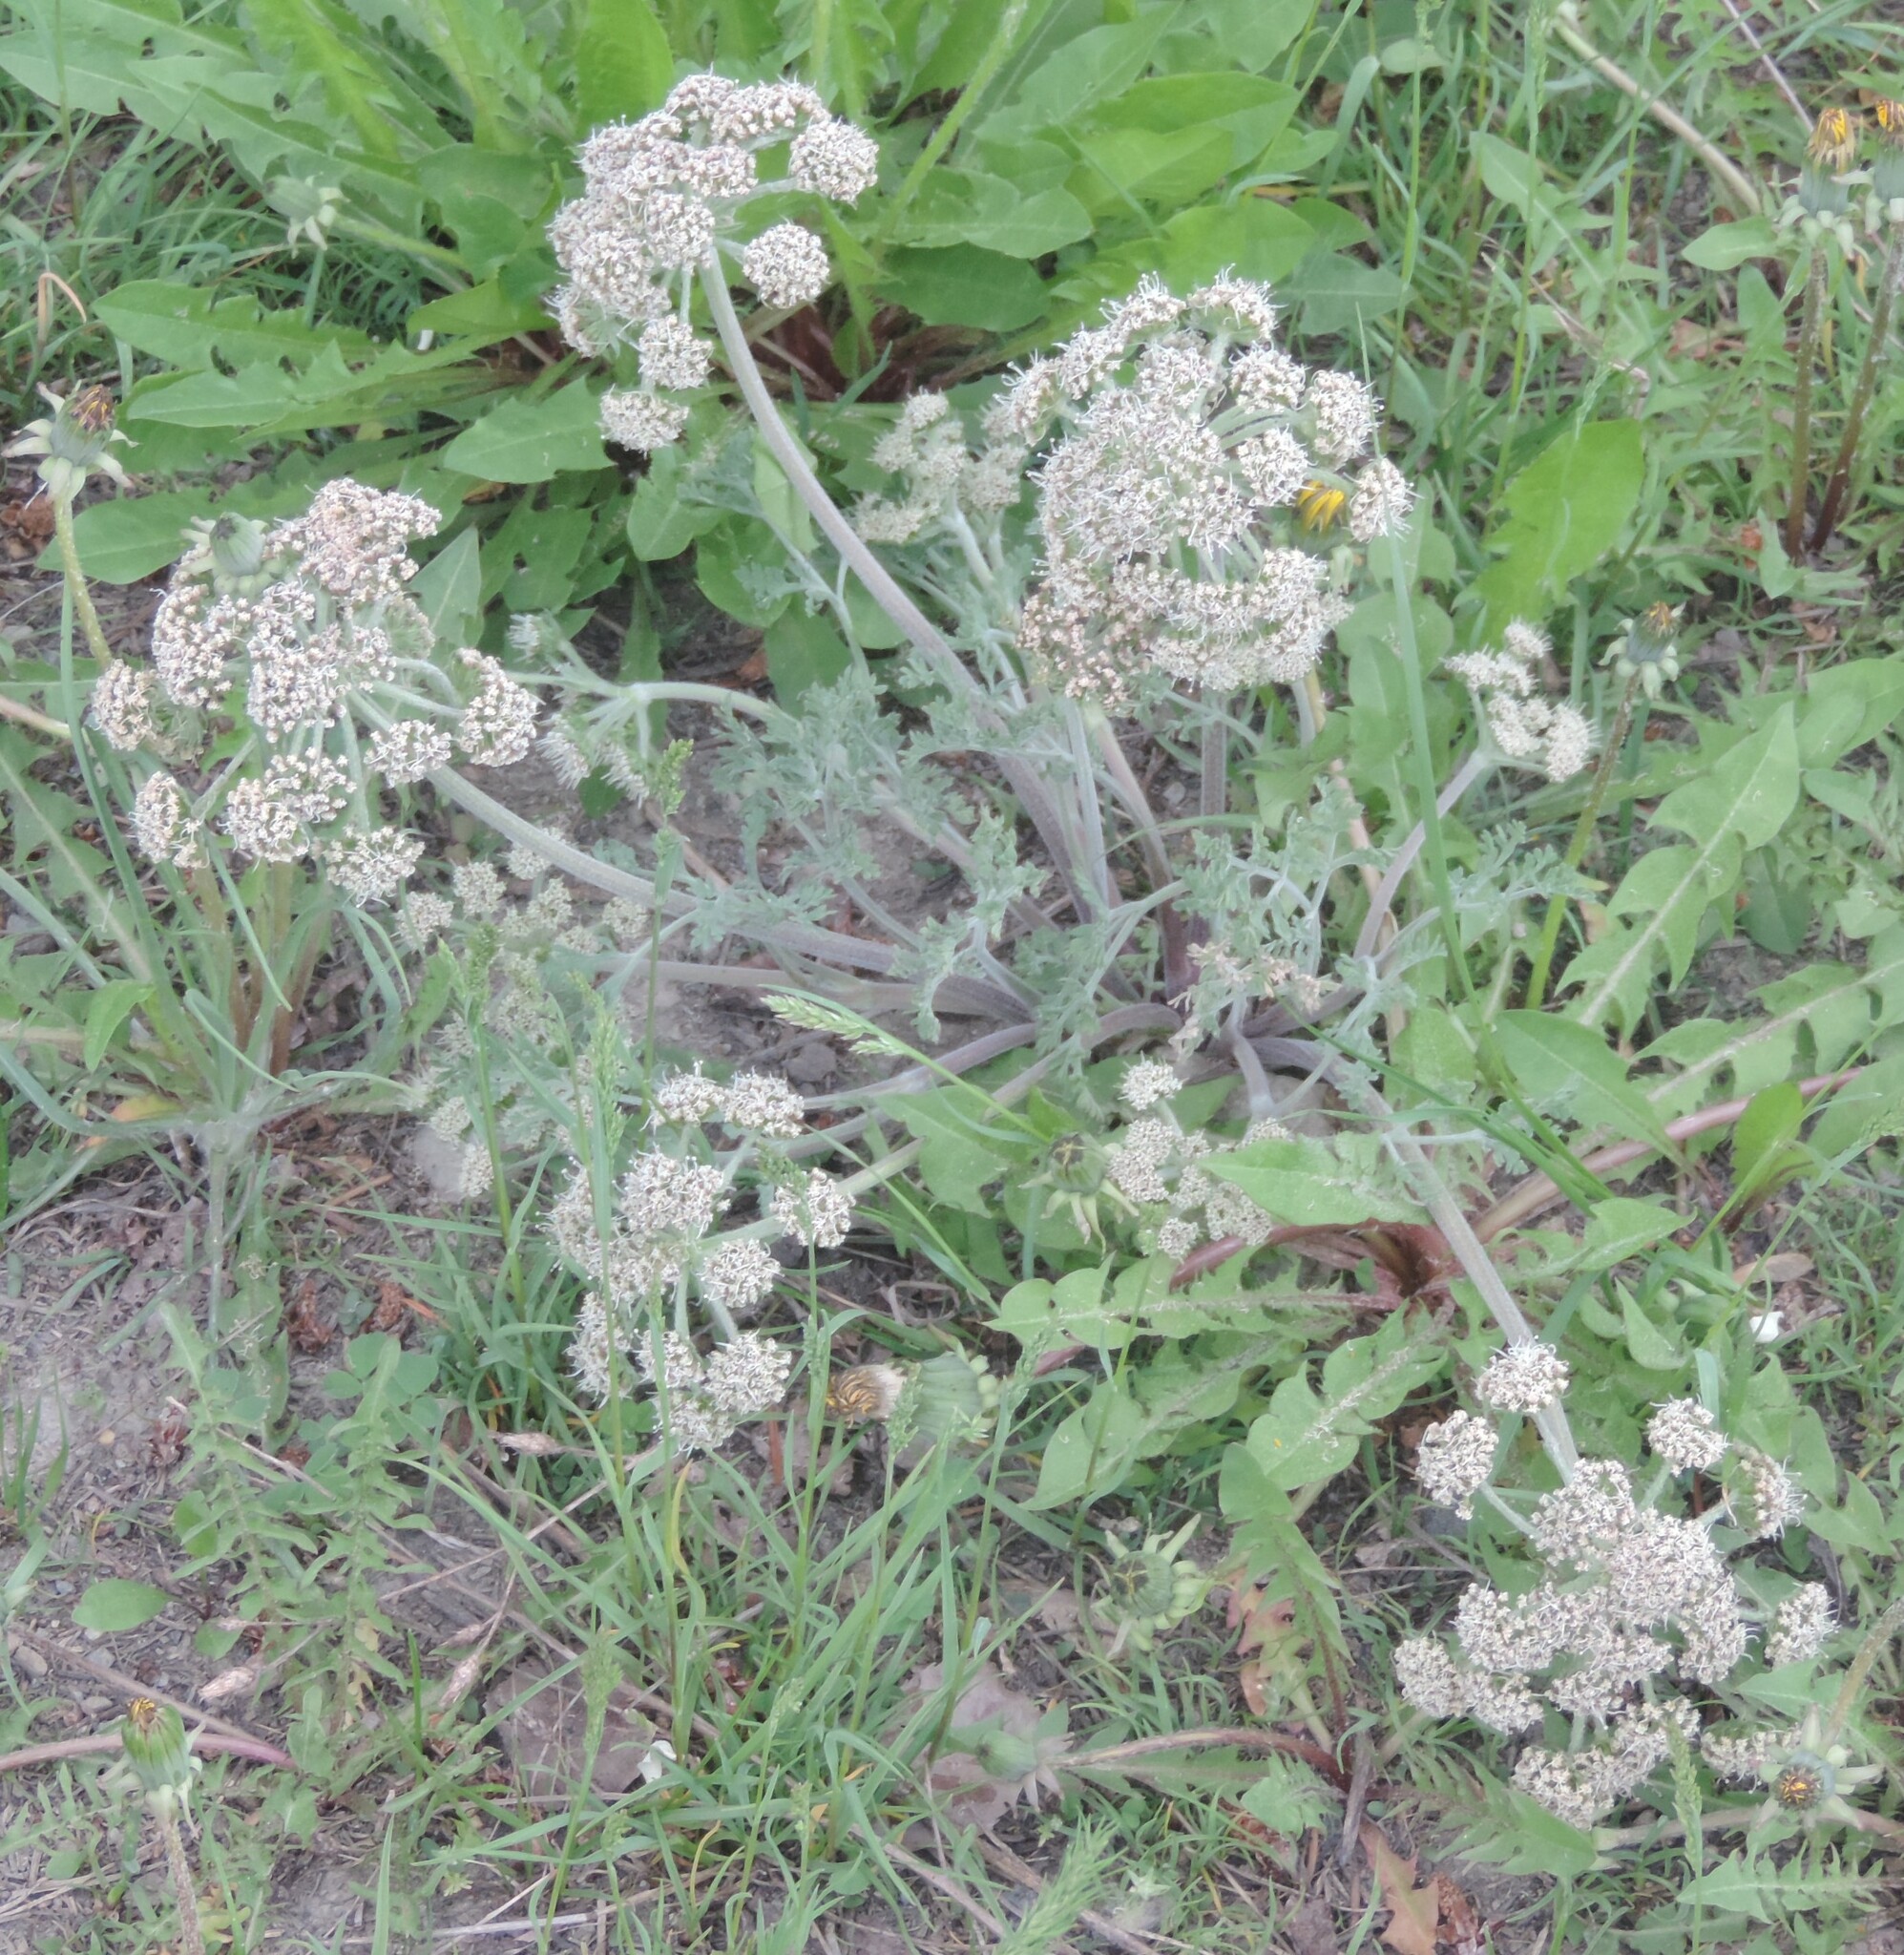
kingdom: Plantae
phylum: Tracheophyta
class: Magnoliopsida
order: Apiales
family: Apiaceae
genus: Lomatium
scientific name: Lomatium macrocarpum
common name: Big-seed biscuitroot
